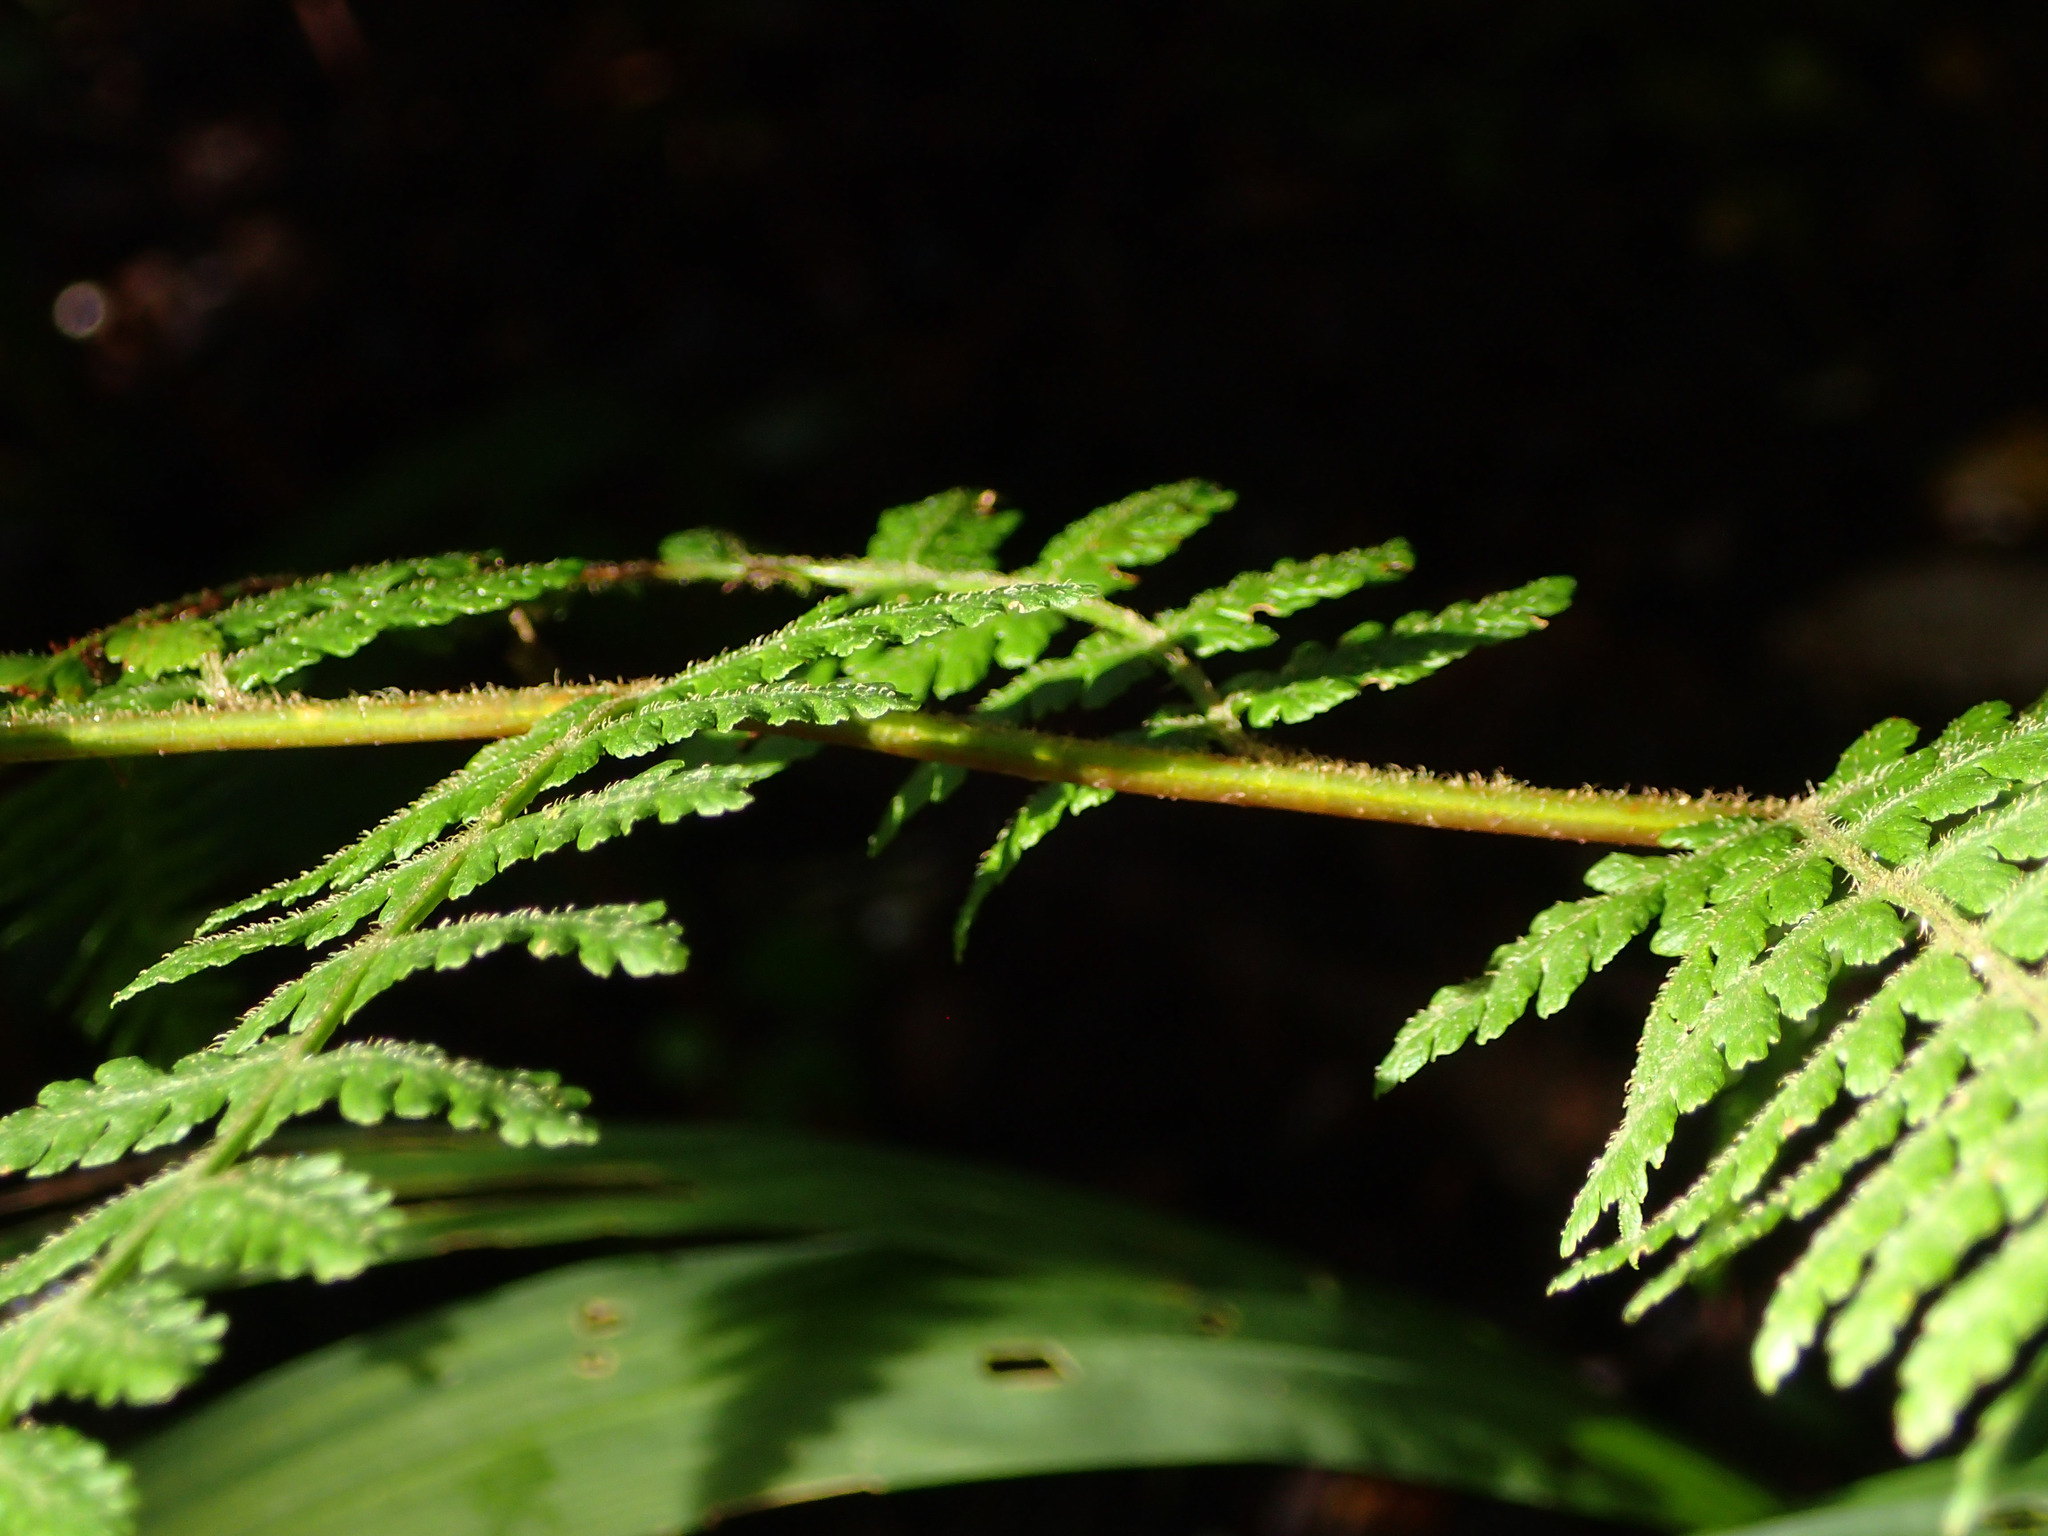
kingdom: Plantae
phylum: Tracheophyta
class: Polypodiopsida
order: Polypodiales
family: Dennstaedtiaceae
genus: Hypolepis
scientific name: Hypolepis ambigua
